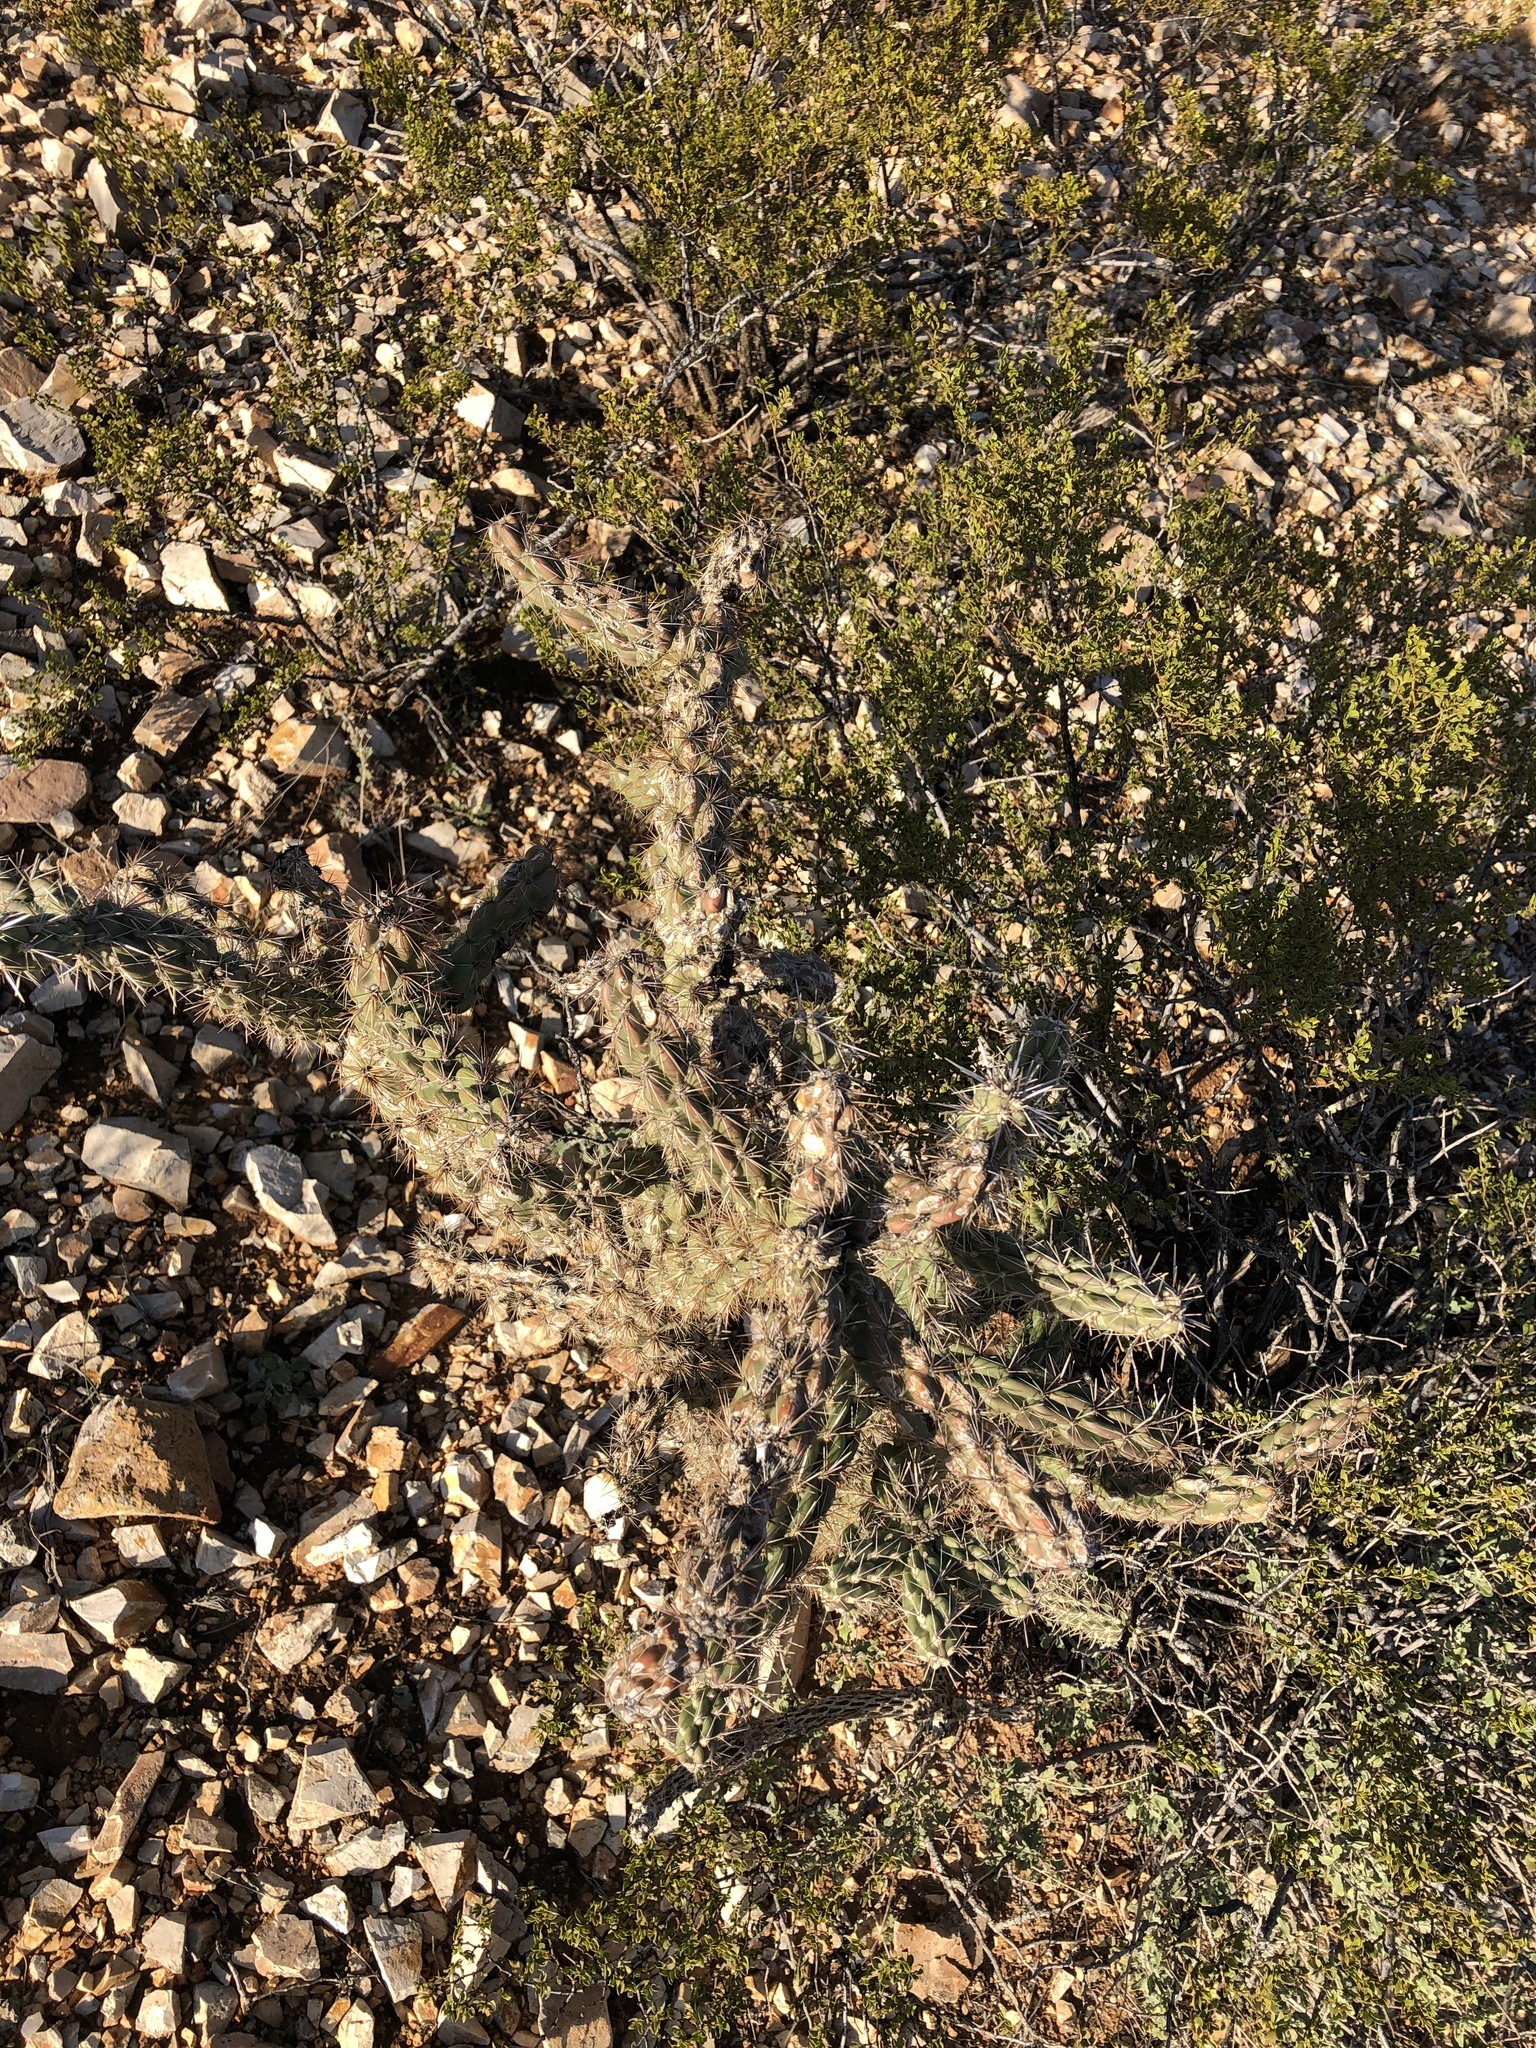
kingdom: Plantae
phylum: Tracheophyta
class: Magnoliopsida
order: Caryophyllales
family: Cactaceae
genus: Cylindropuntia
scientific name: Cylindropuntia imbricata
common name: Candelabrum cactus
